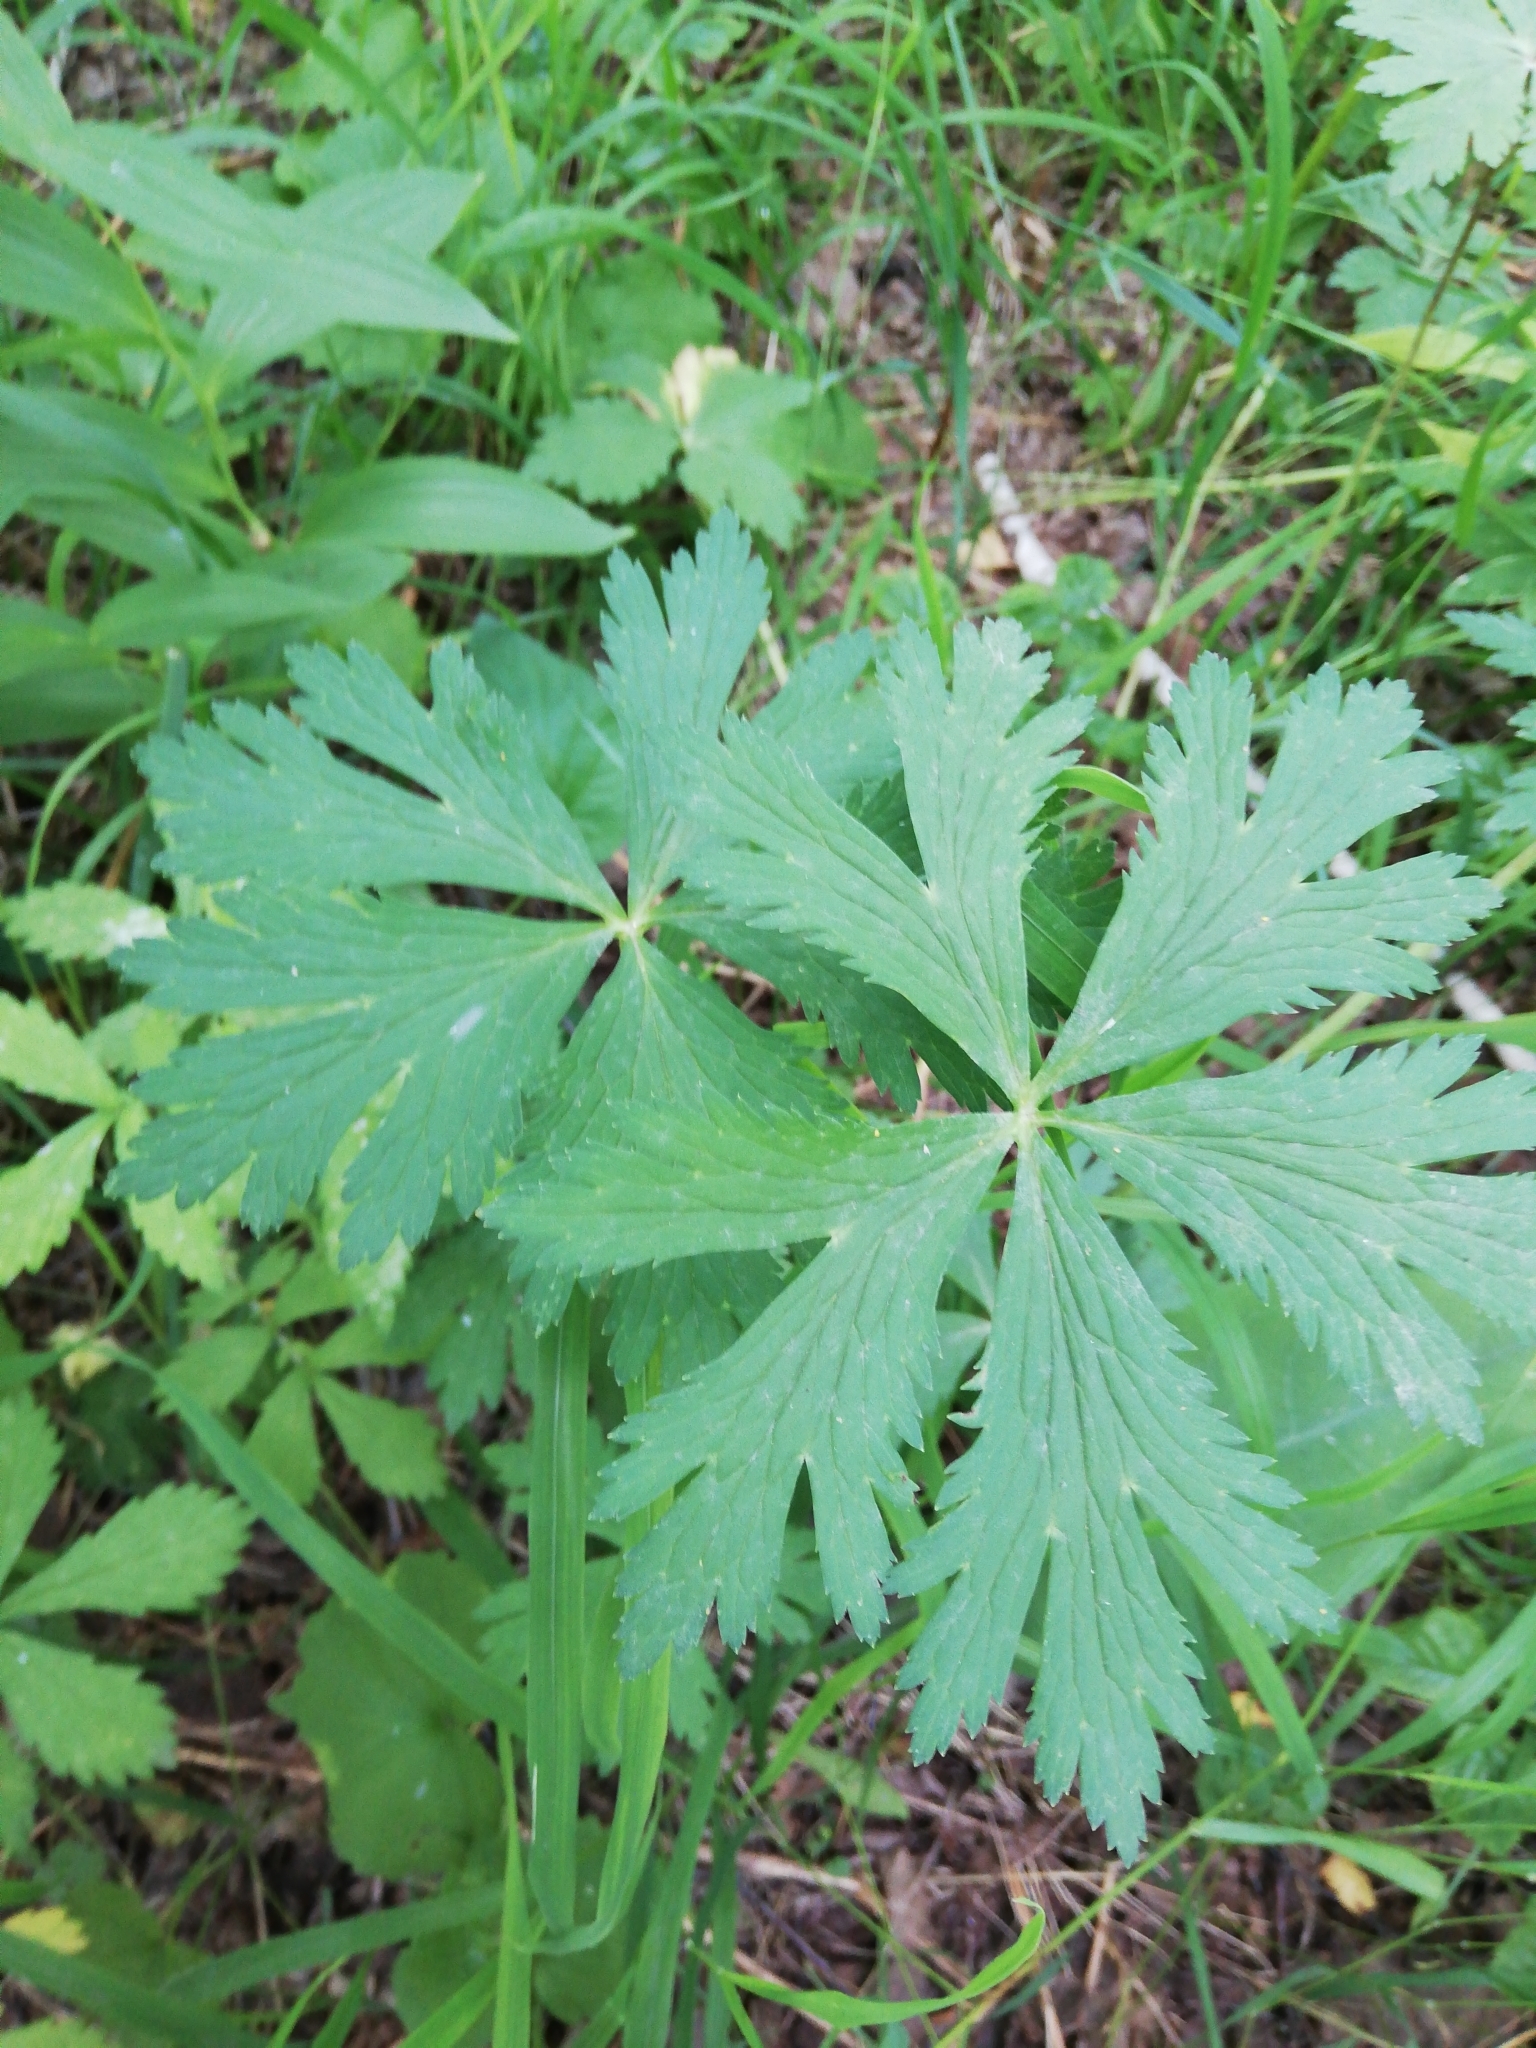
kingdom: Plantae
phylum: Tracheophyta
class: Magnoliopsida
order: Ranunculales
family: Ranunculaceae
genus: Trollius
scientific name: Trollius asiaticus
